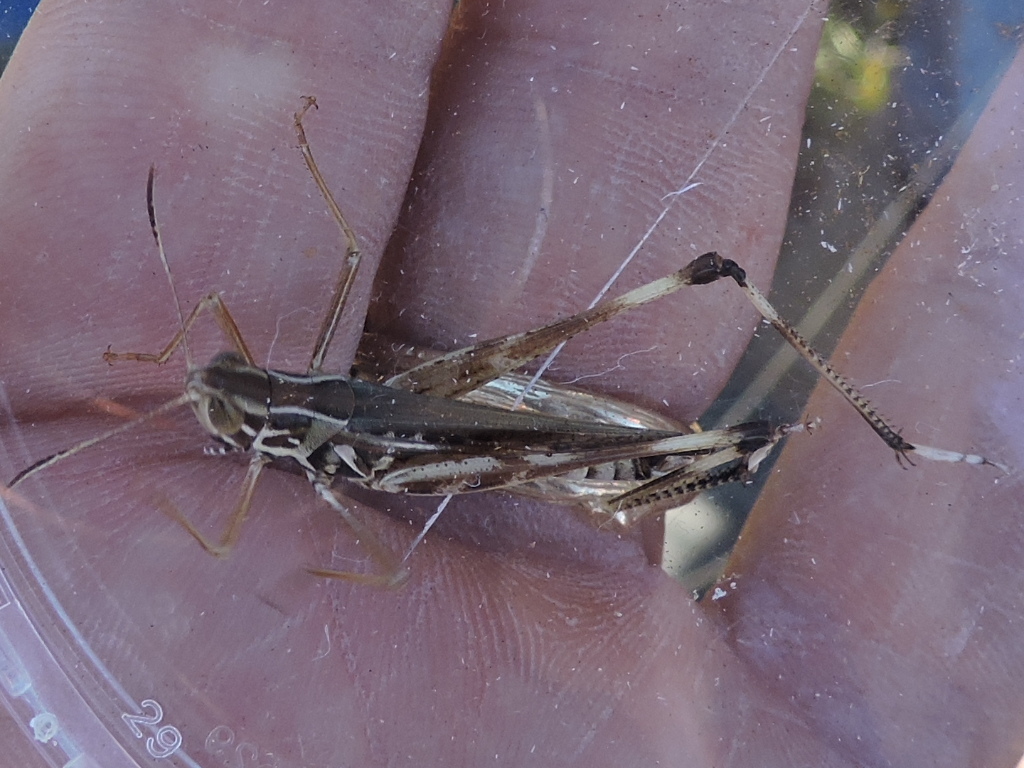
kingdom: Animalia
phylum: Arthropoda
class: Insecta
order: Orthoptera
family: Acrididae
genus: Syrbula
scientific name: Syrbula admirabilis
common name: Handsome grasshopper
